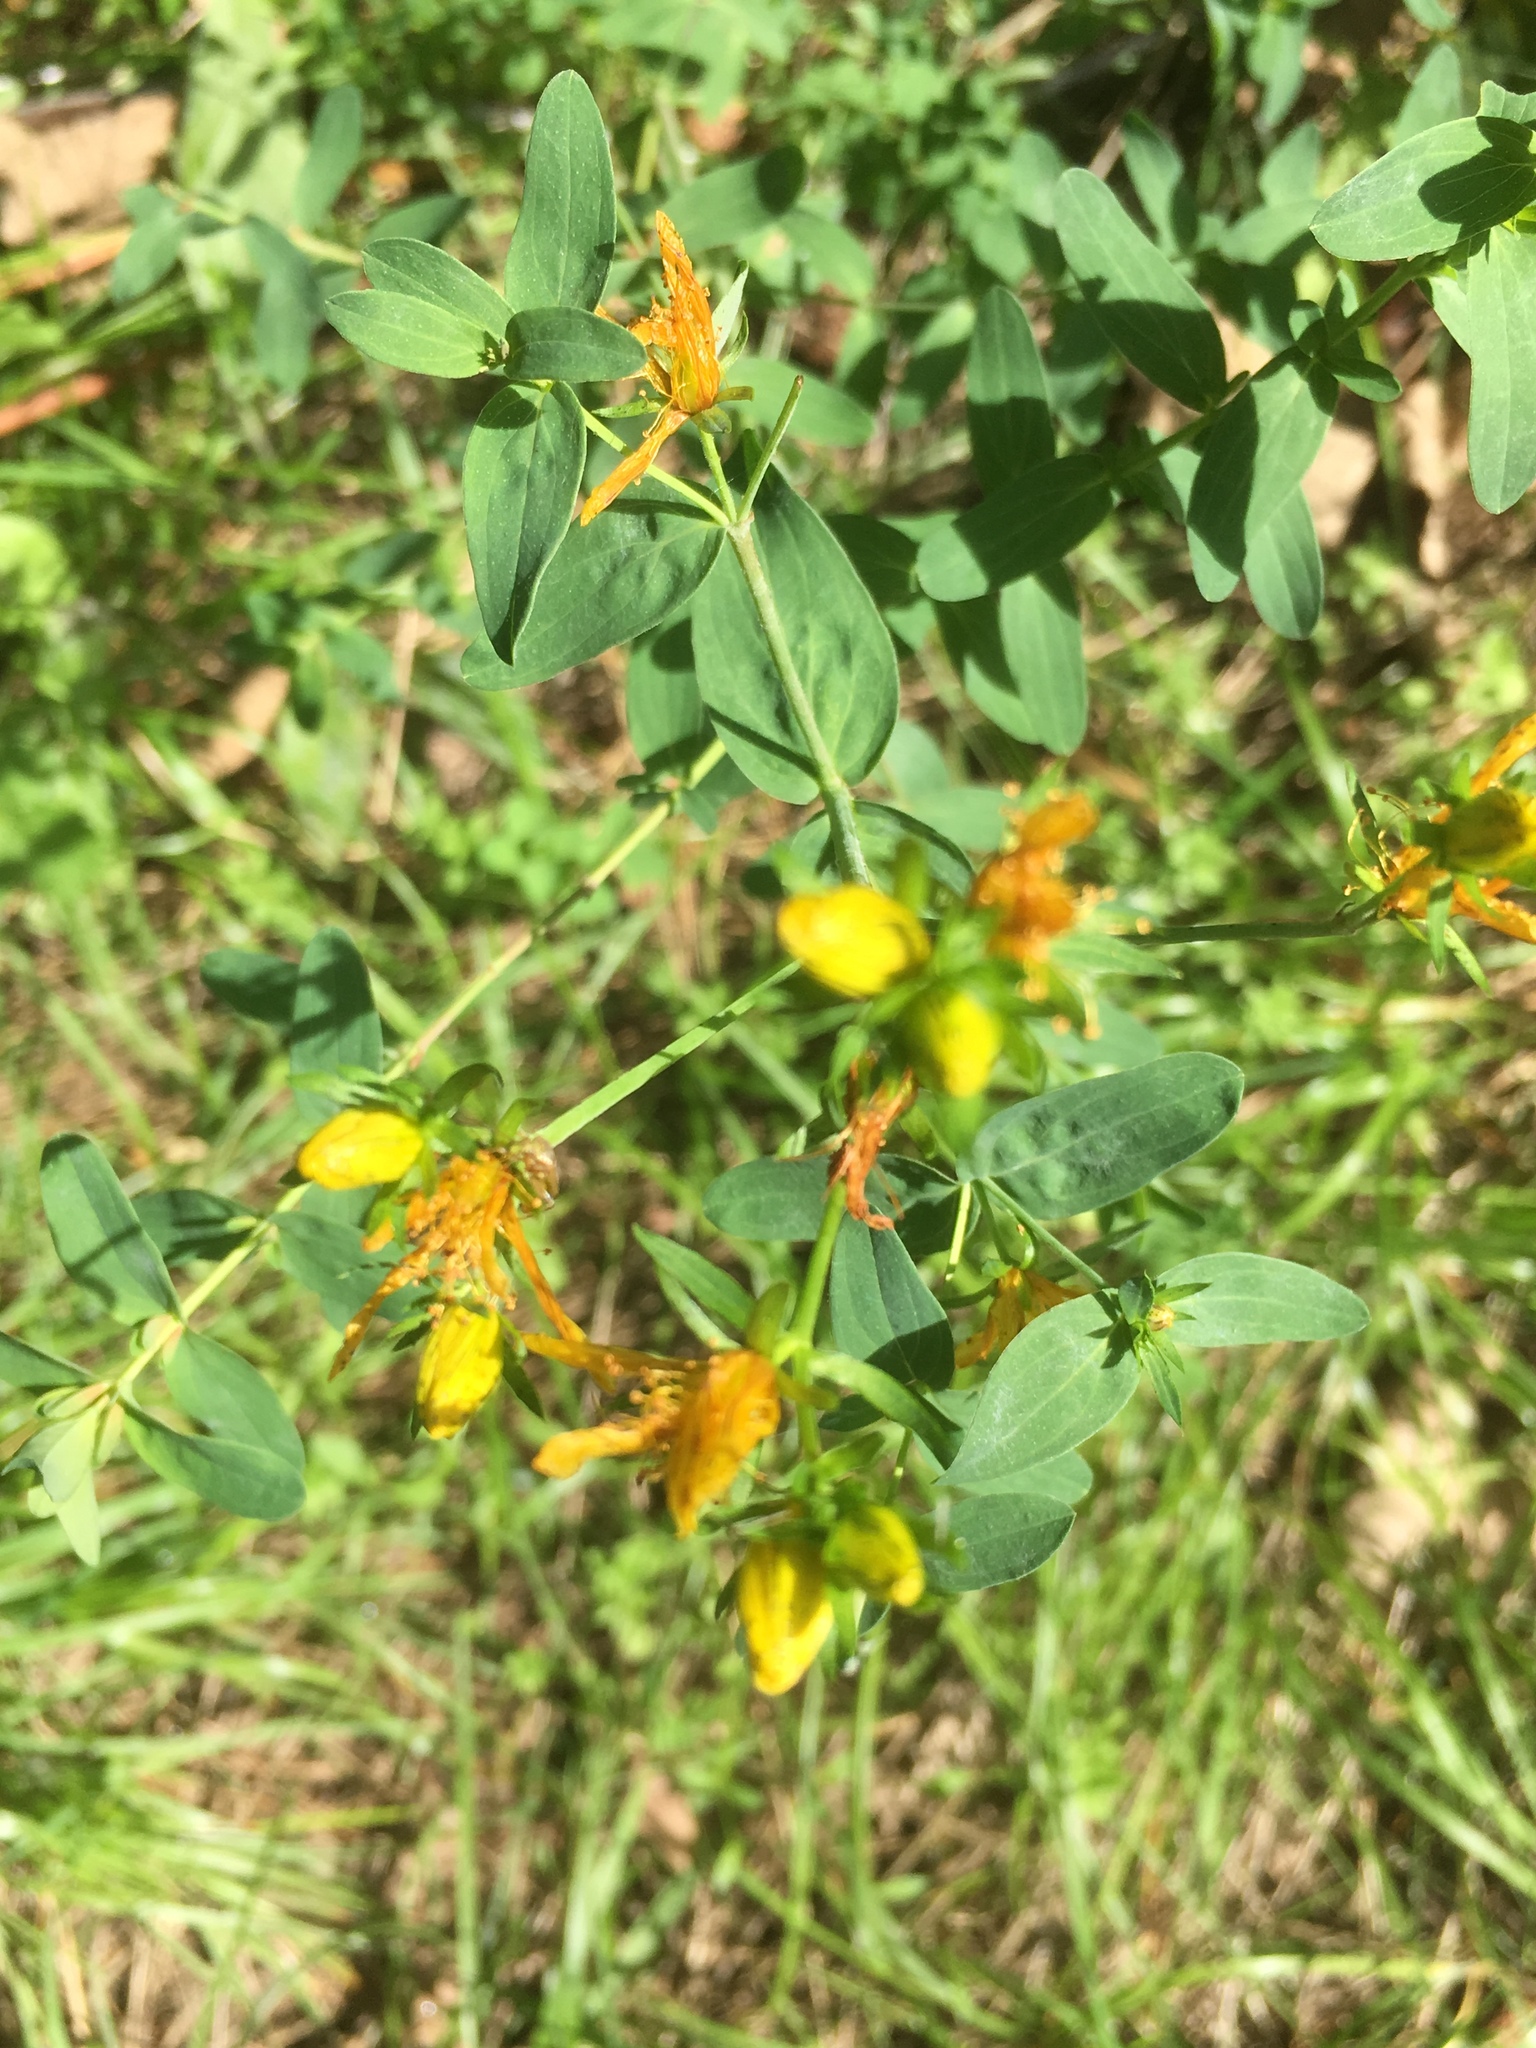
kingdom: Plantae
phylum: Tracheophyta
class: Magnoliopsida
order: Malpighiales
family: Hypericaceae
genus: Hypericum
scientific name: Hypericum perforatum
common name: Common st. johnswort
